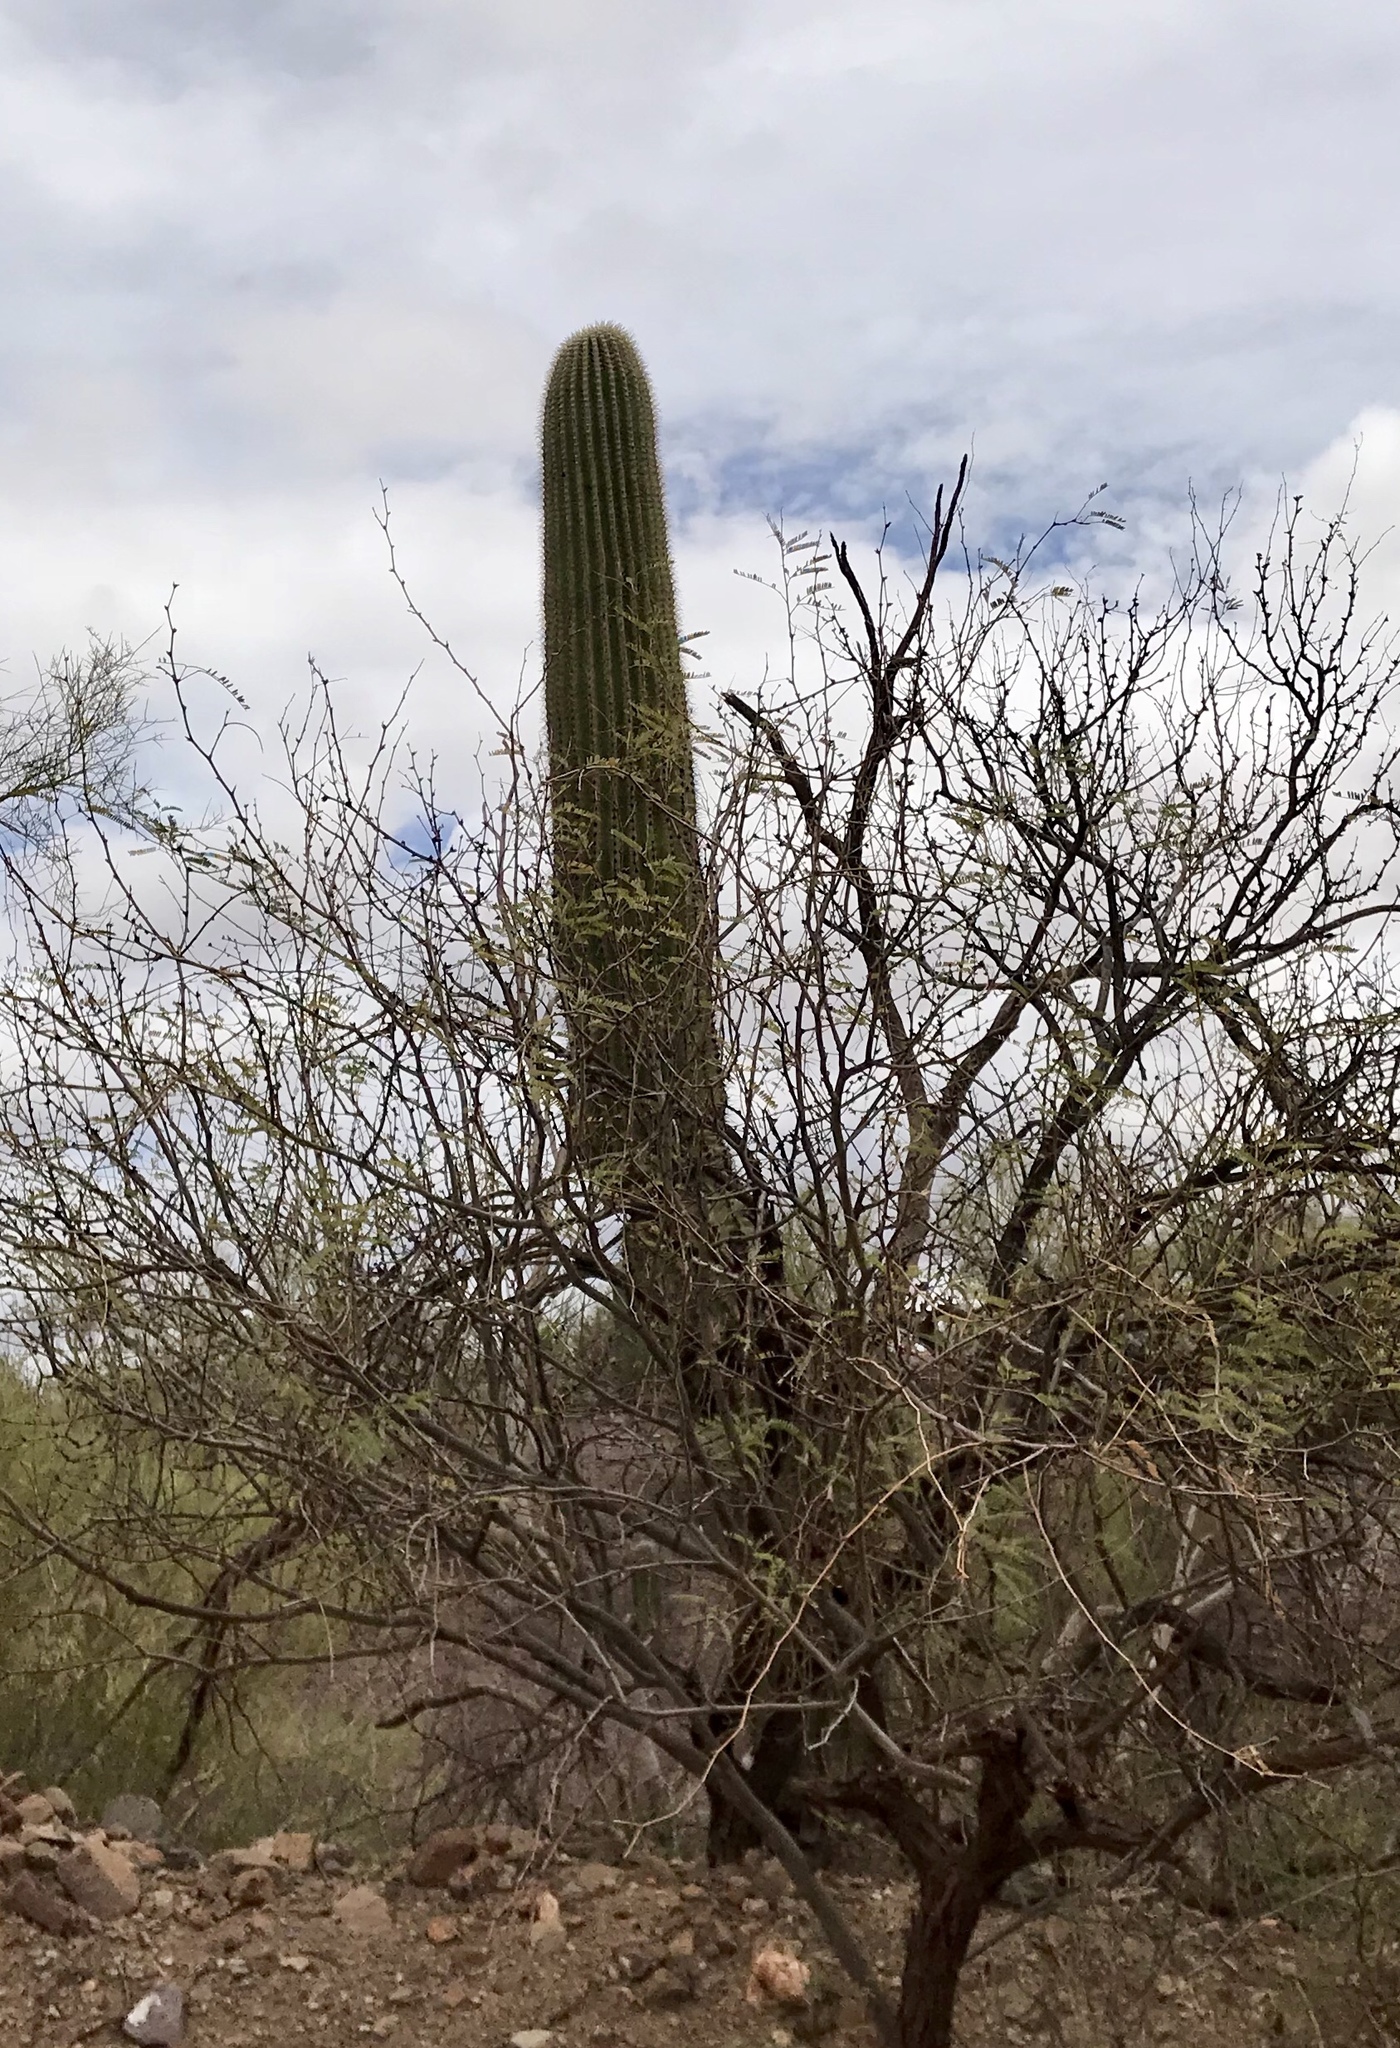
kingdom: Plantae
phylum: Tracheophyta
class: Magnoliopsida
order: Caryophyllales
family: Cactaceae
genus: Carnegiea
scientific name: Carnegiea gigantea
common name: Saguaro
